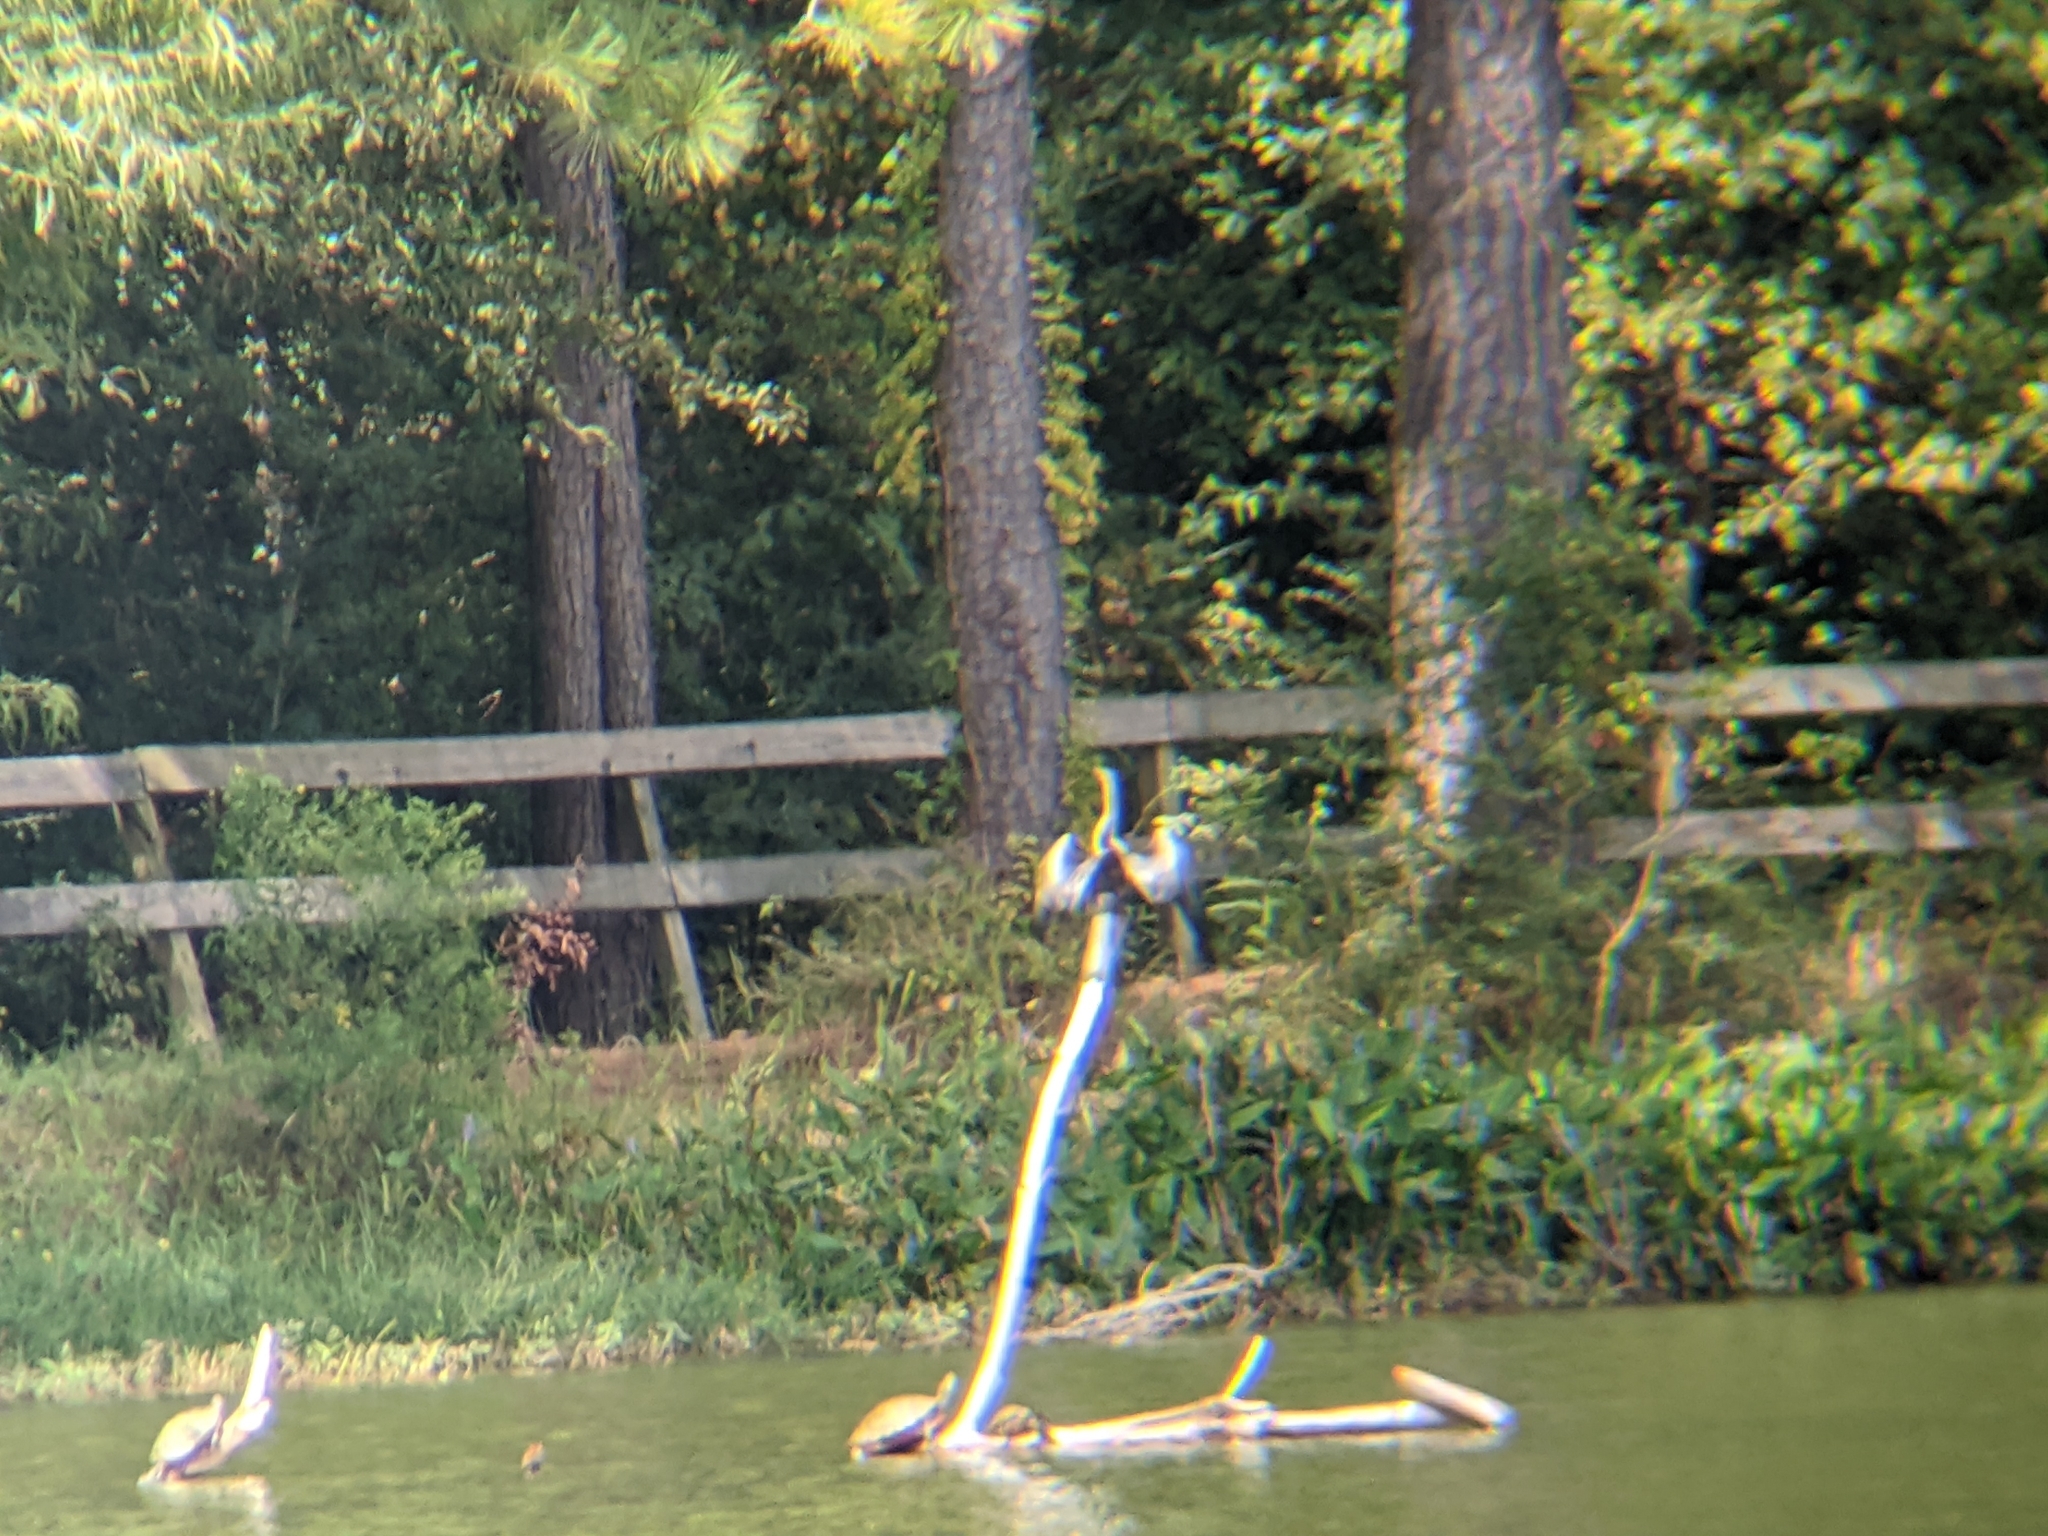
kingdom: Animalia
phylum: Chordata
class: Aves
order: Suliformes
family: Anhingidae
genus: Anhinga
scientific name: Anhinga anhinga
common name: Anhinga
